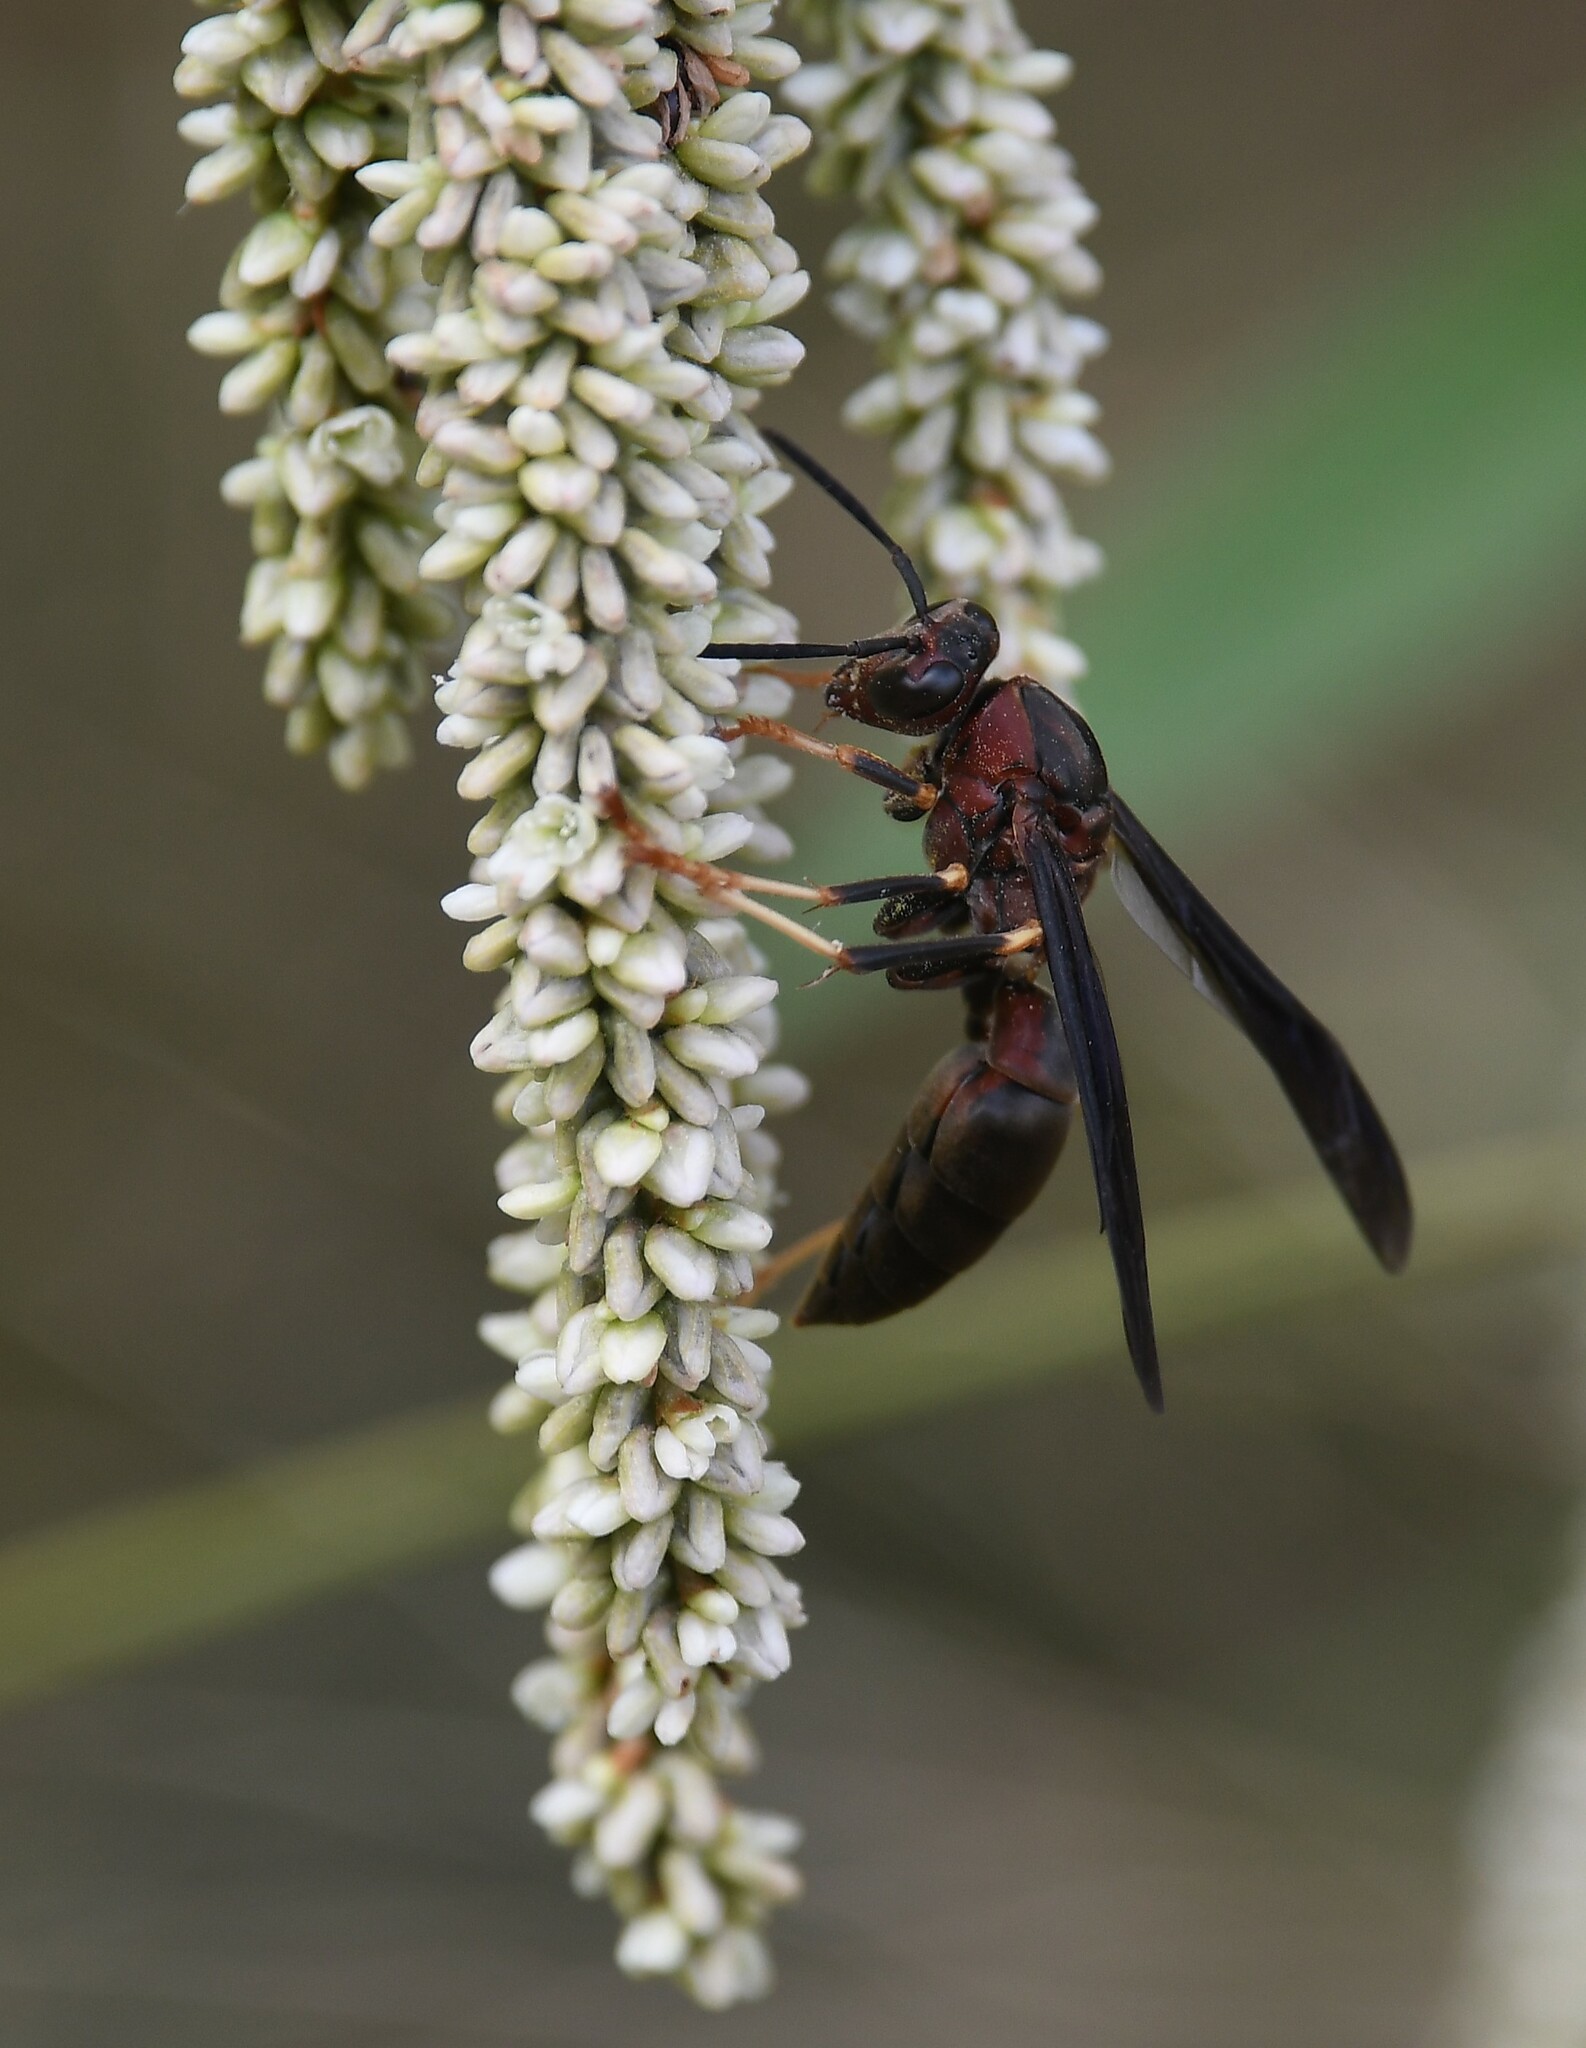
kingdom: Animalia
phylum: Arthropoda
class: Insecta
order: Hymenoptera
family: Eumenidae
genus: Polistes
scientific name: Polistes metricus
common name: Metric paper wasp
